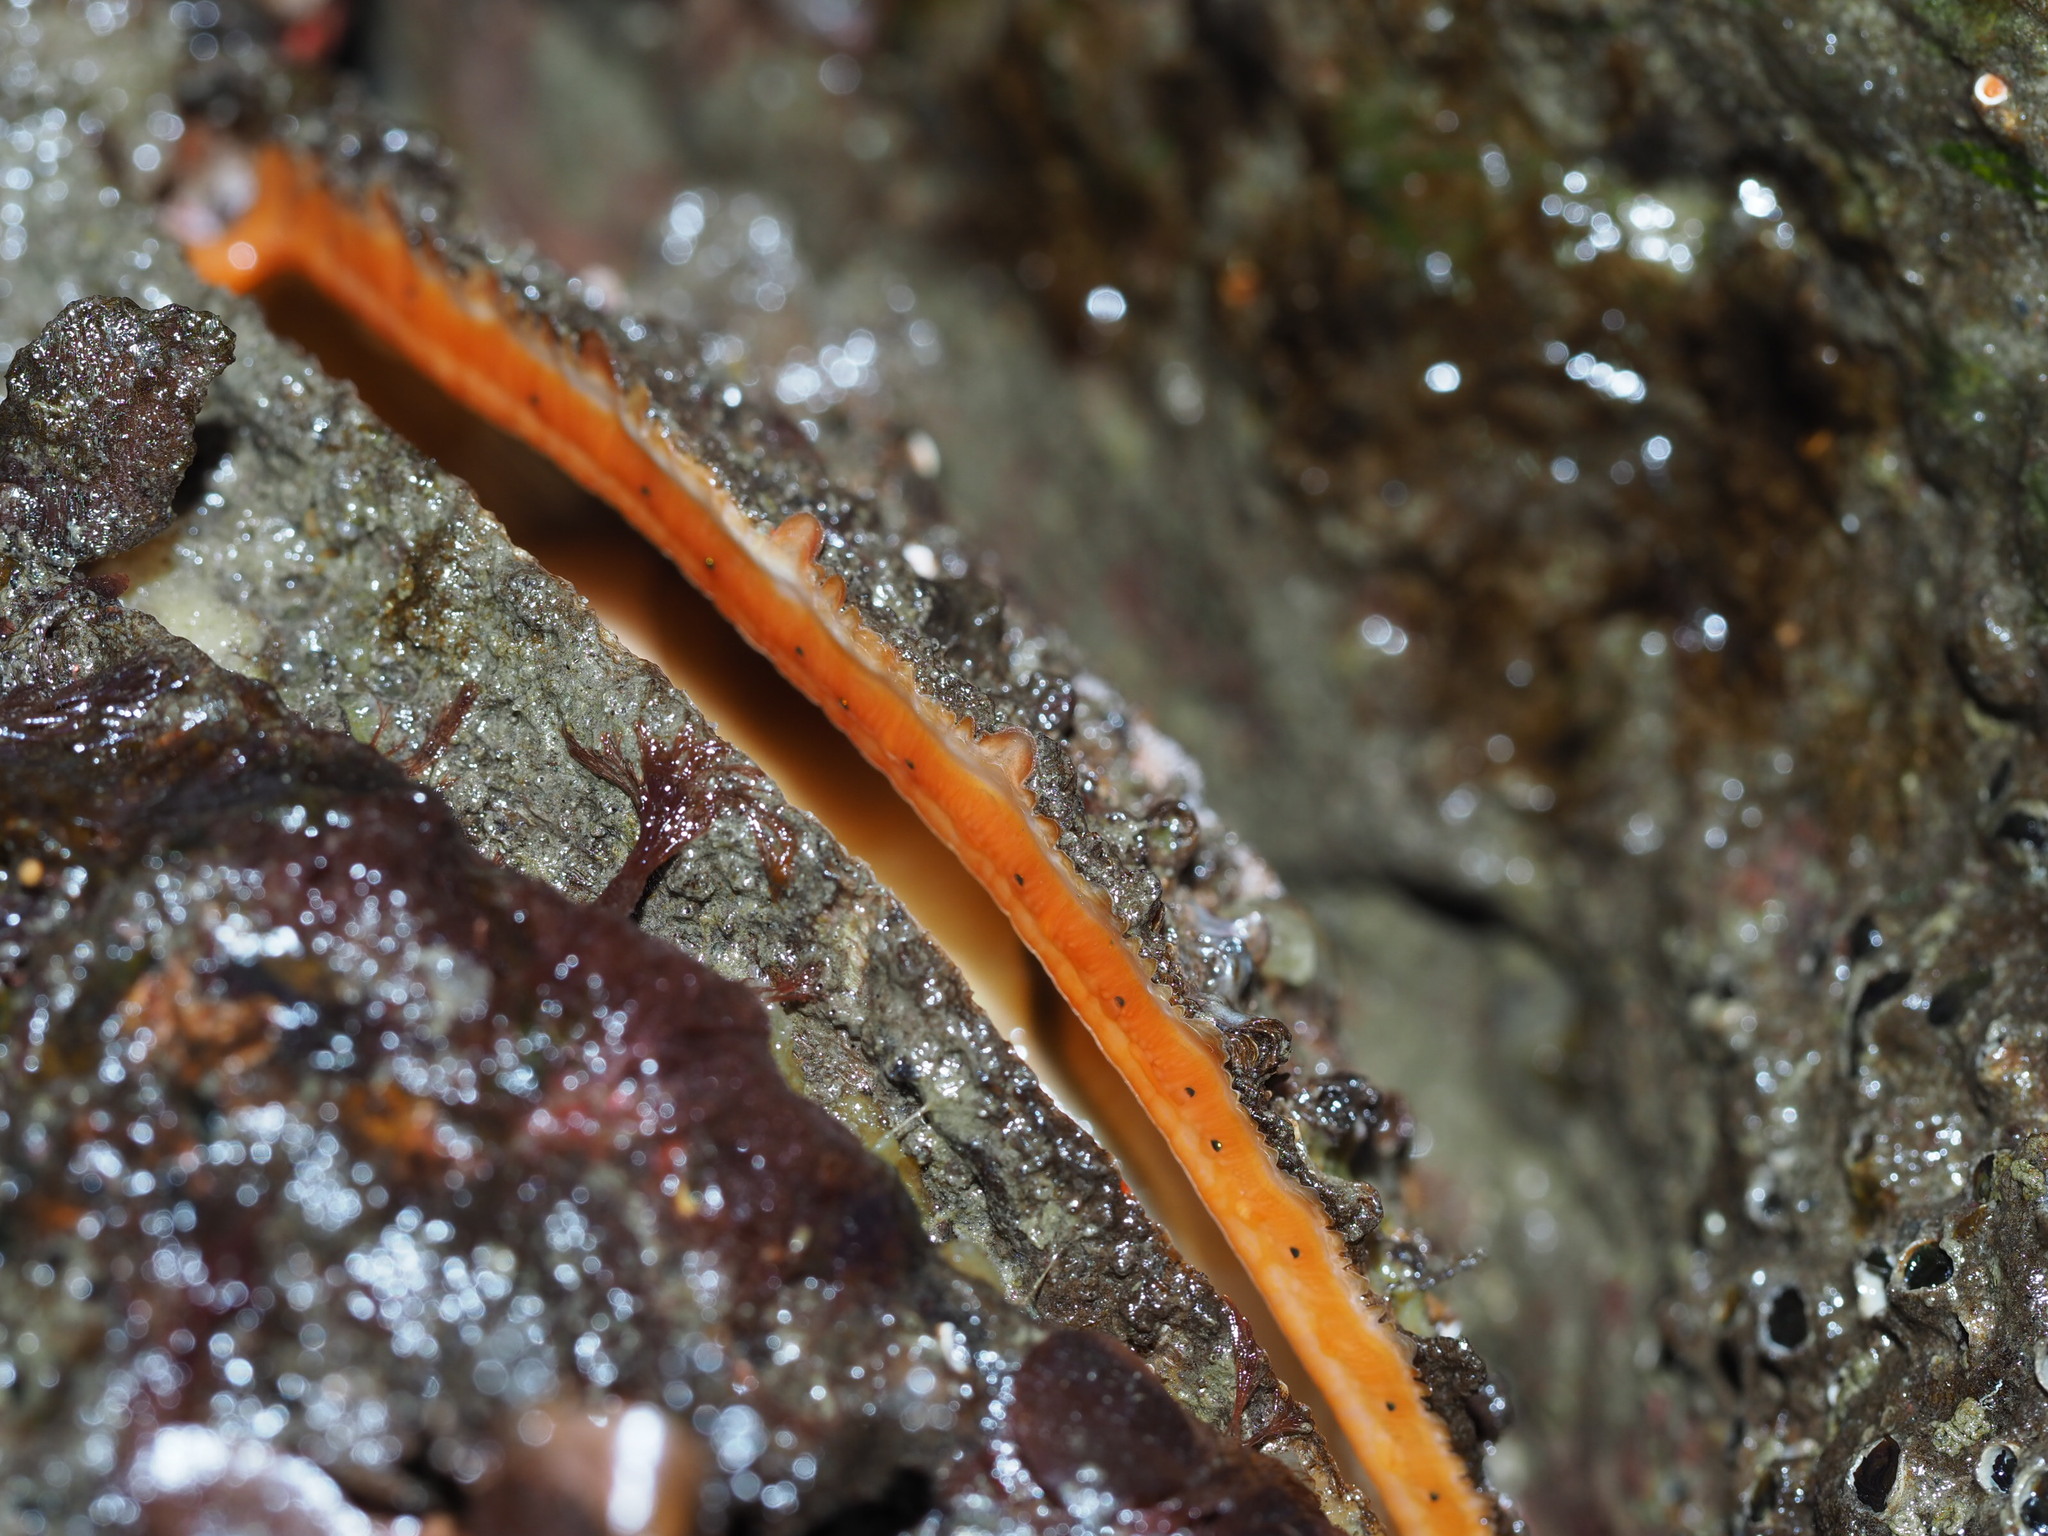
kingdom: Animalia
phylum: Mollusca
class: Bivalvia
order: Pectinida
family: Pectinidae
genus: Crassadoma
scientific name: Crassadoma gigantea
